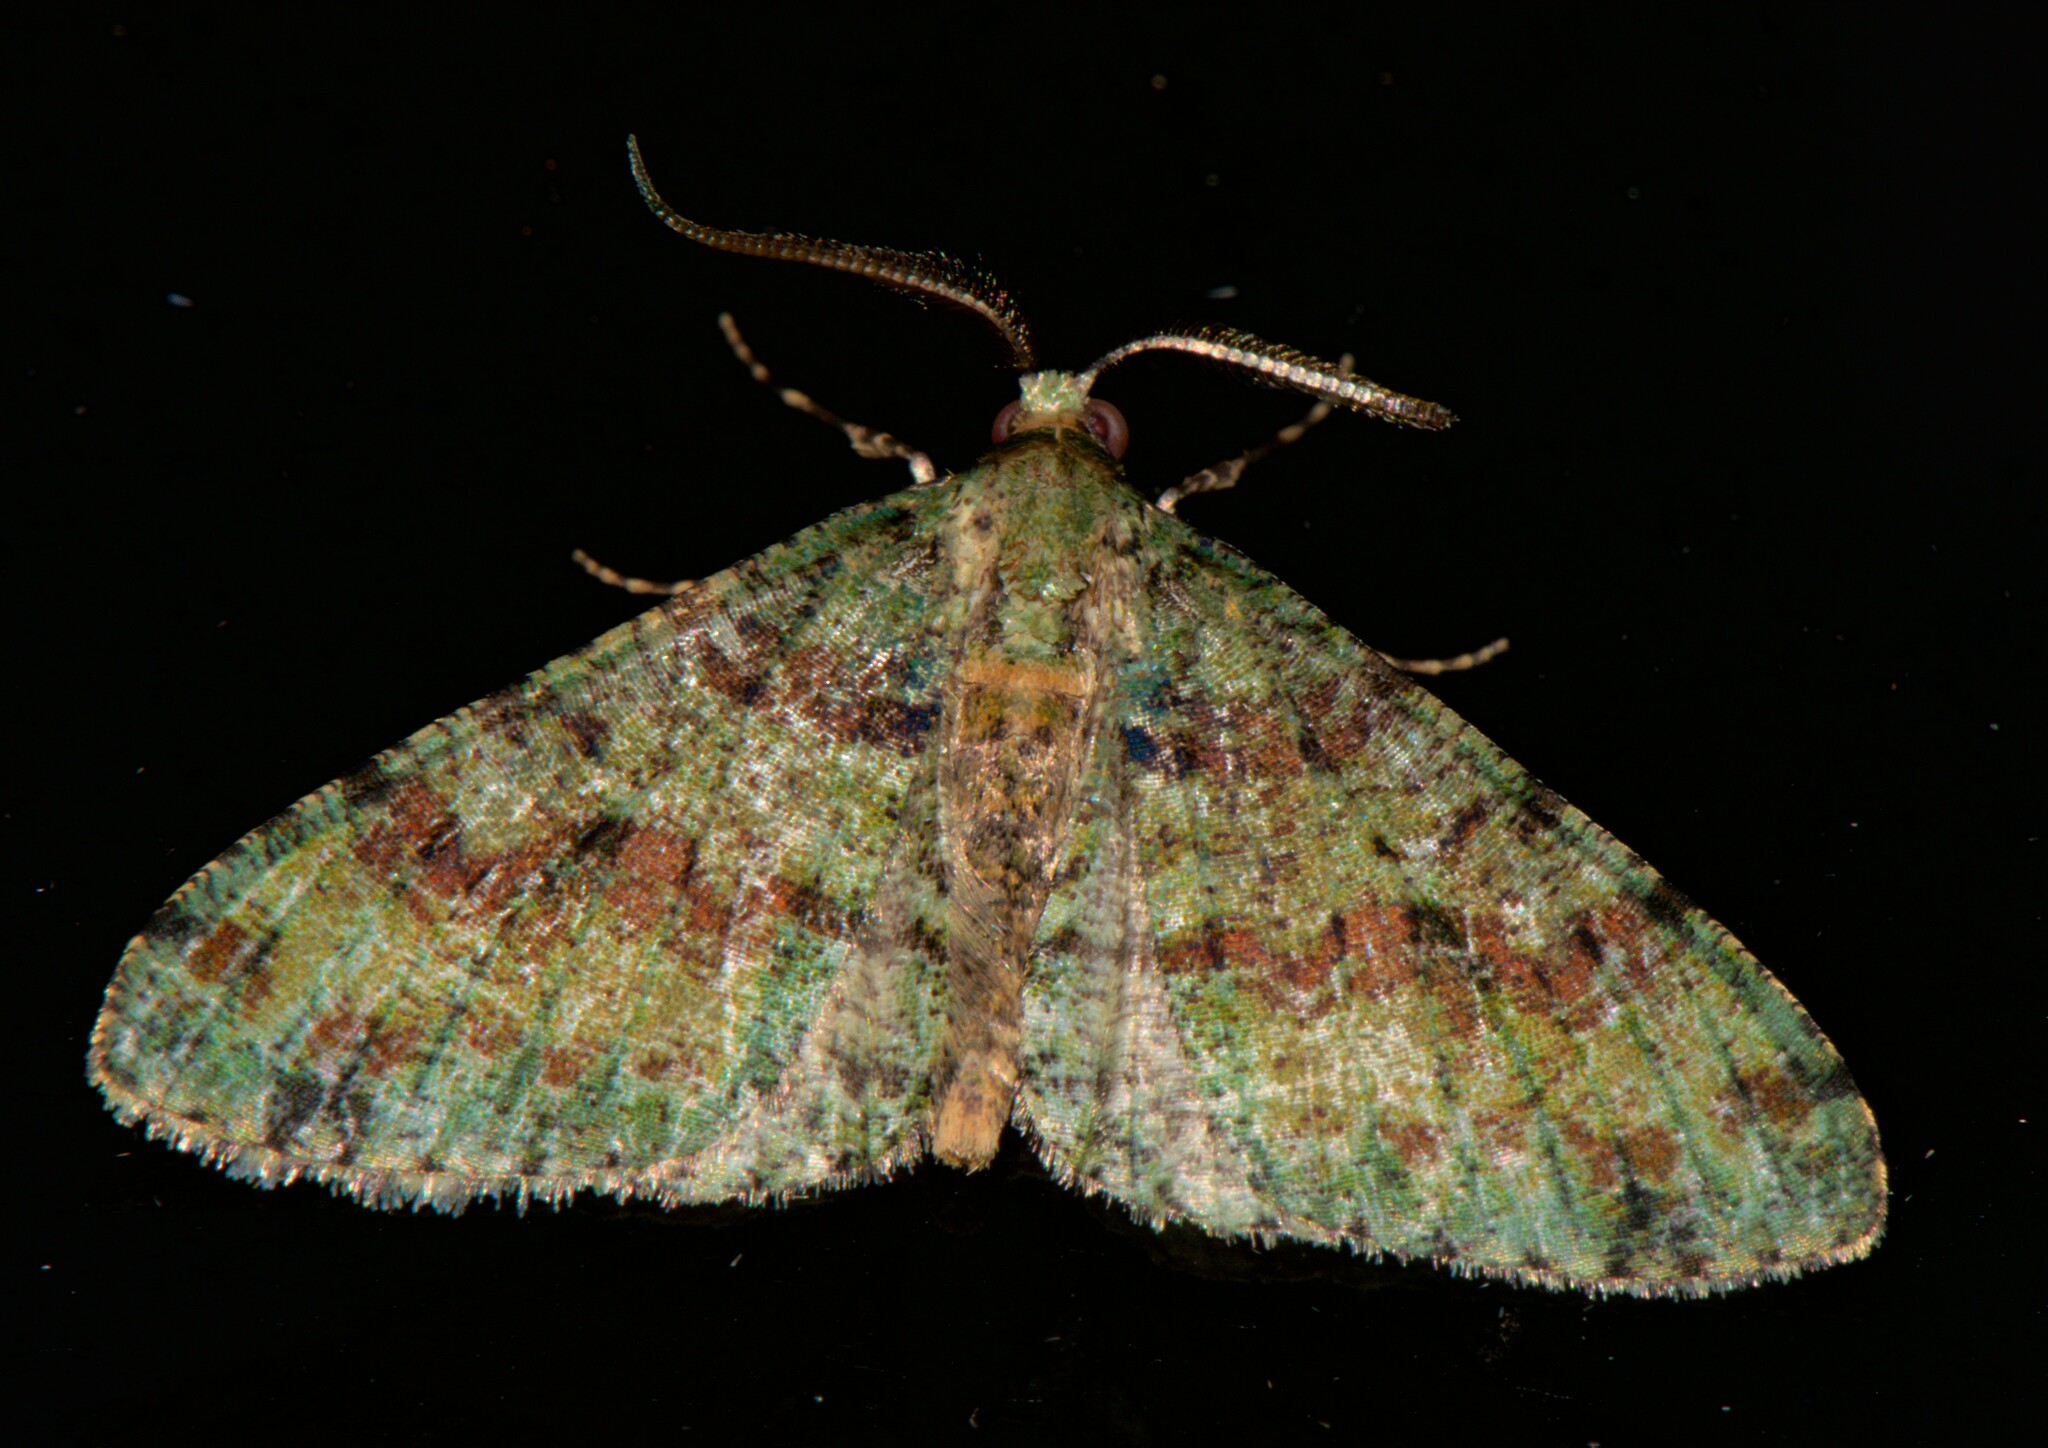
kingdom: Animalia
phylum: Arthropoda
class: Insecta
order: Lepidoptera
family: Geometridae
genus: Myrioblephara
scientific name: Myrioblephara duplexa
